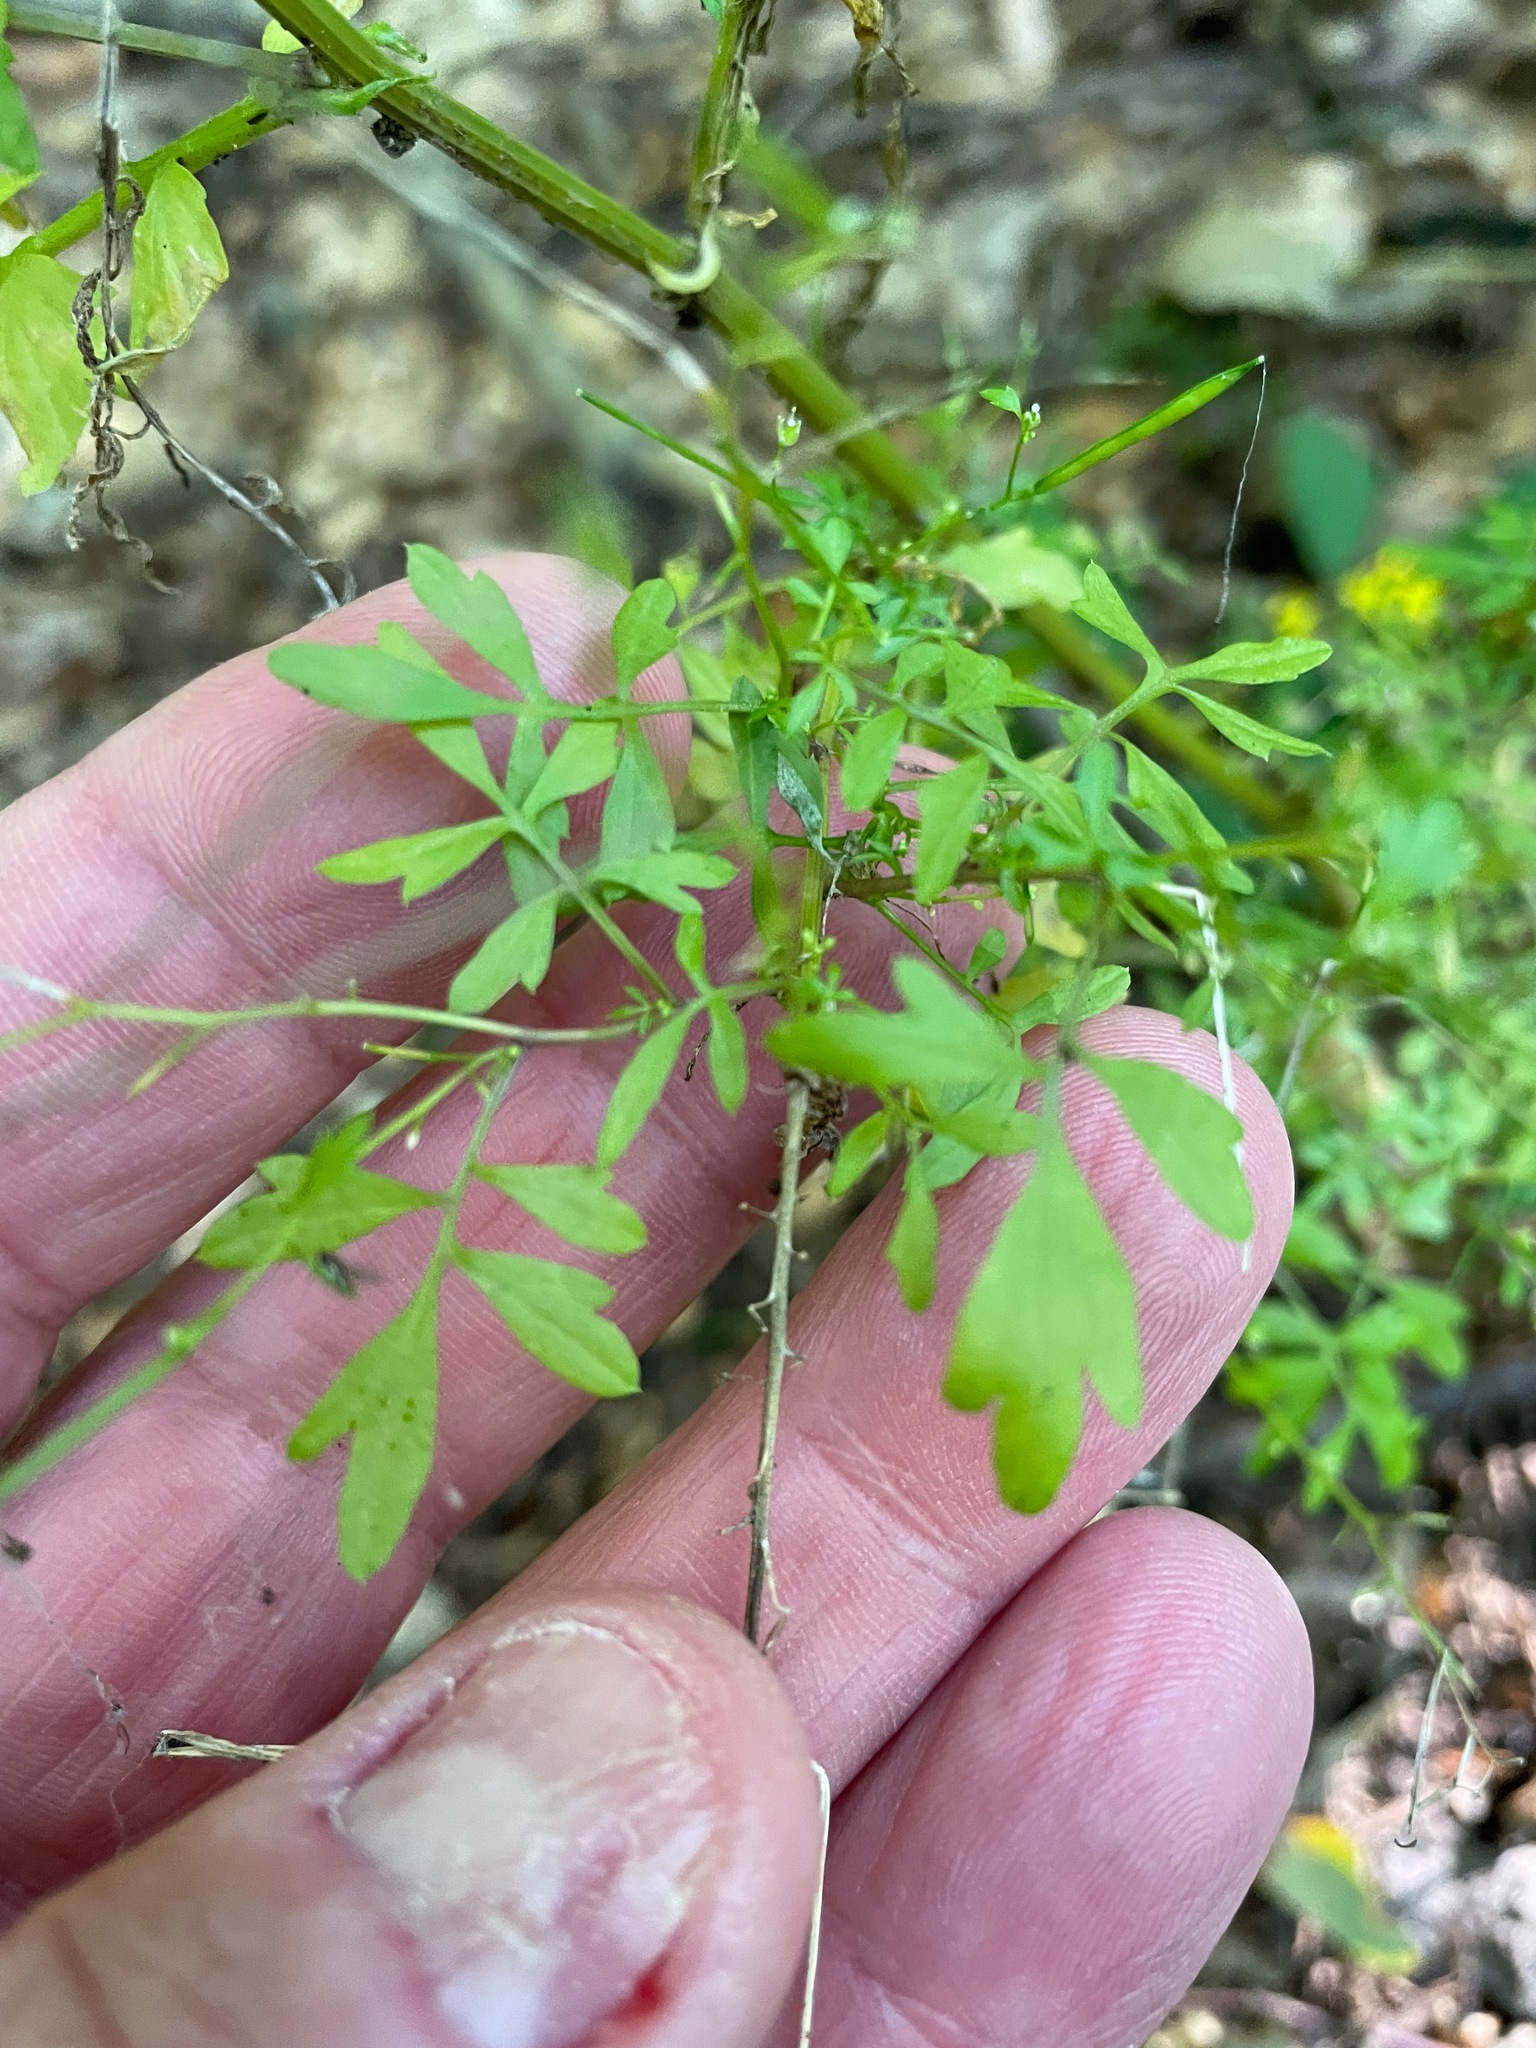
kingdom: Plantae
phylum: Tracheophyta
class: Magnoliopsida
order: Brassicales
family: Brassicaceae
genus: Cardamine
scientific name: Cardamine impatiens
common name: Narrow-leaved bitter-cress
